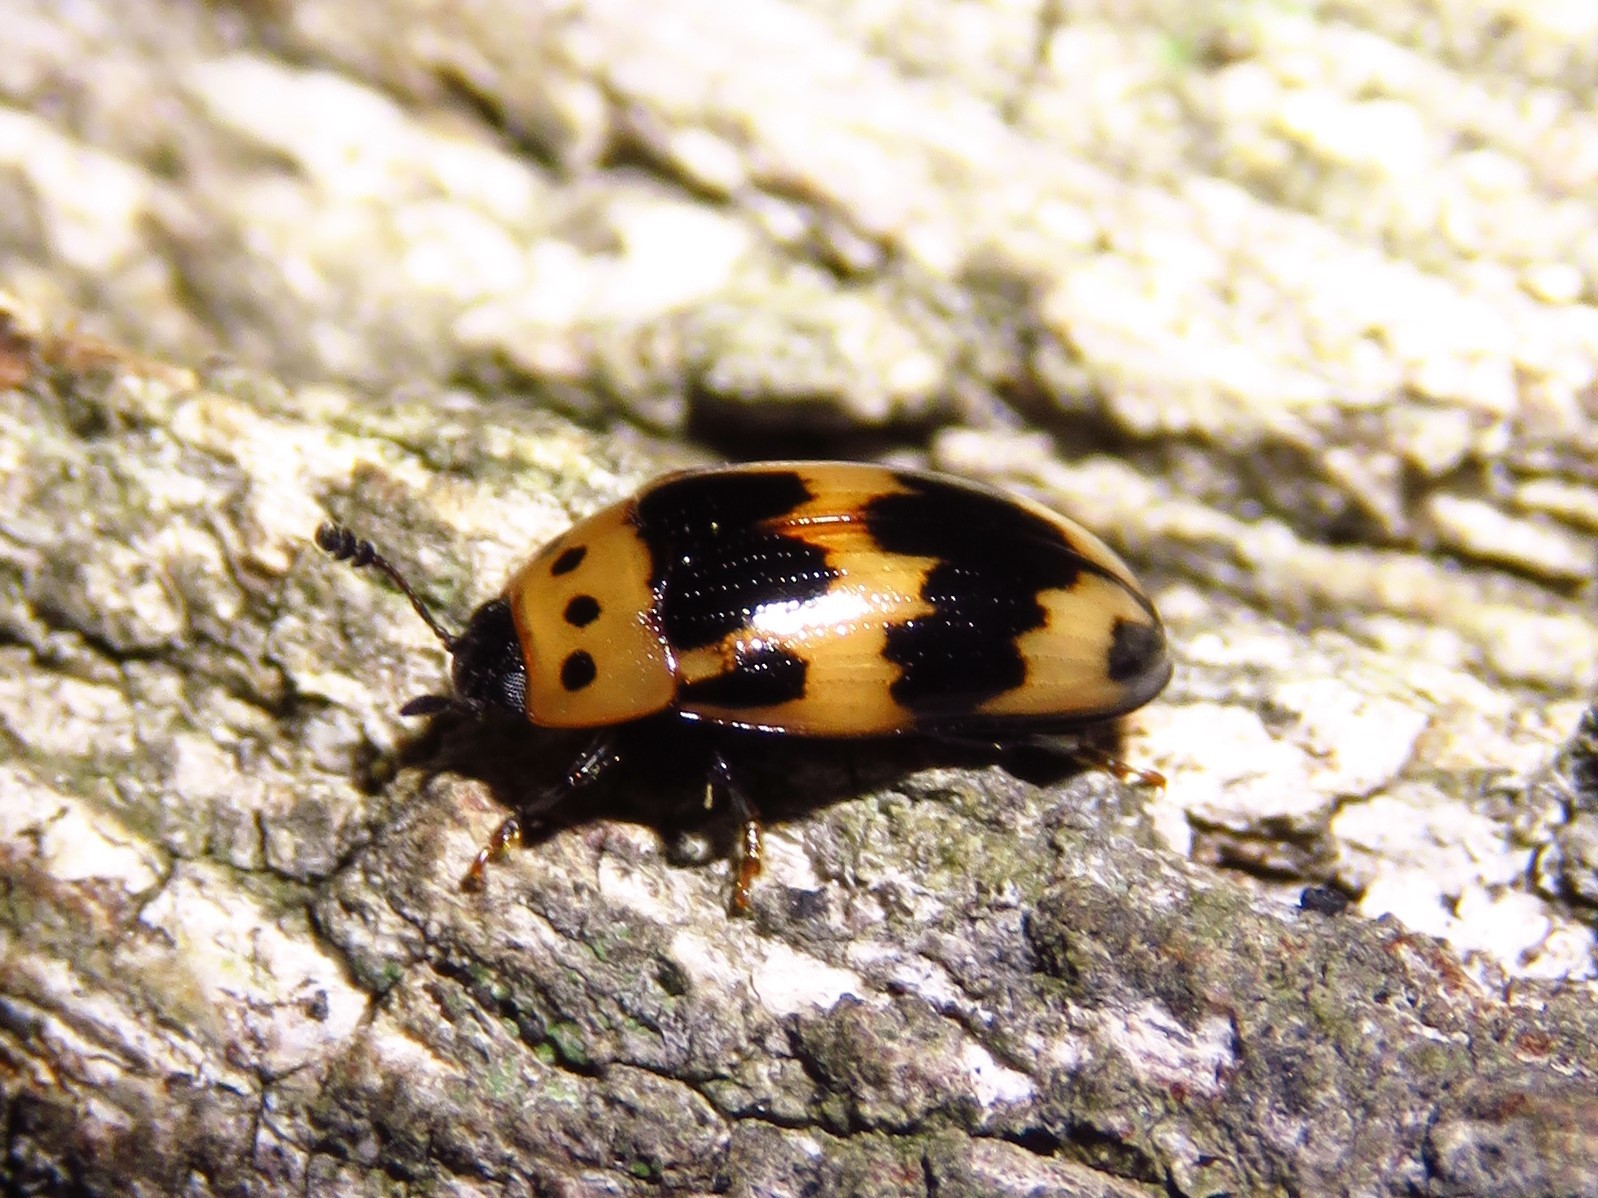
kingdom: Animalia
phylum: Arthropoda
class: Insecta
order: Coleoptera
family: Erotylidae
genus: Ischyrus
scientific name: Ischyrus quadripunctatus
